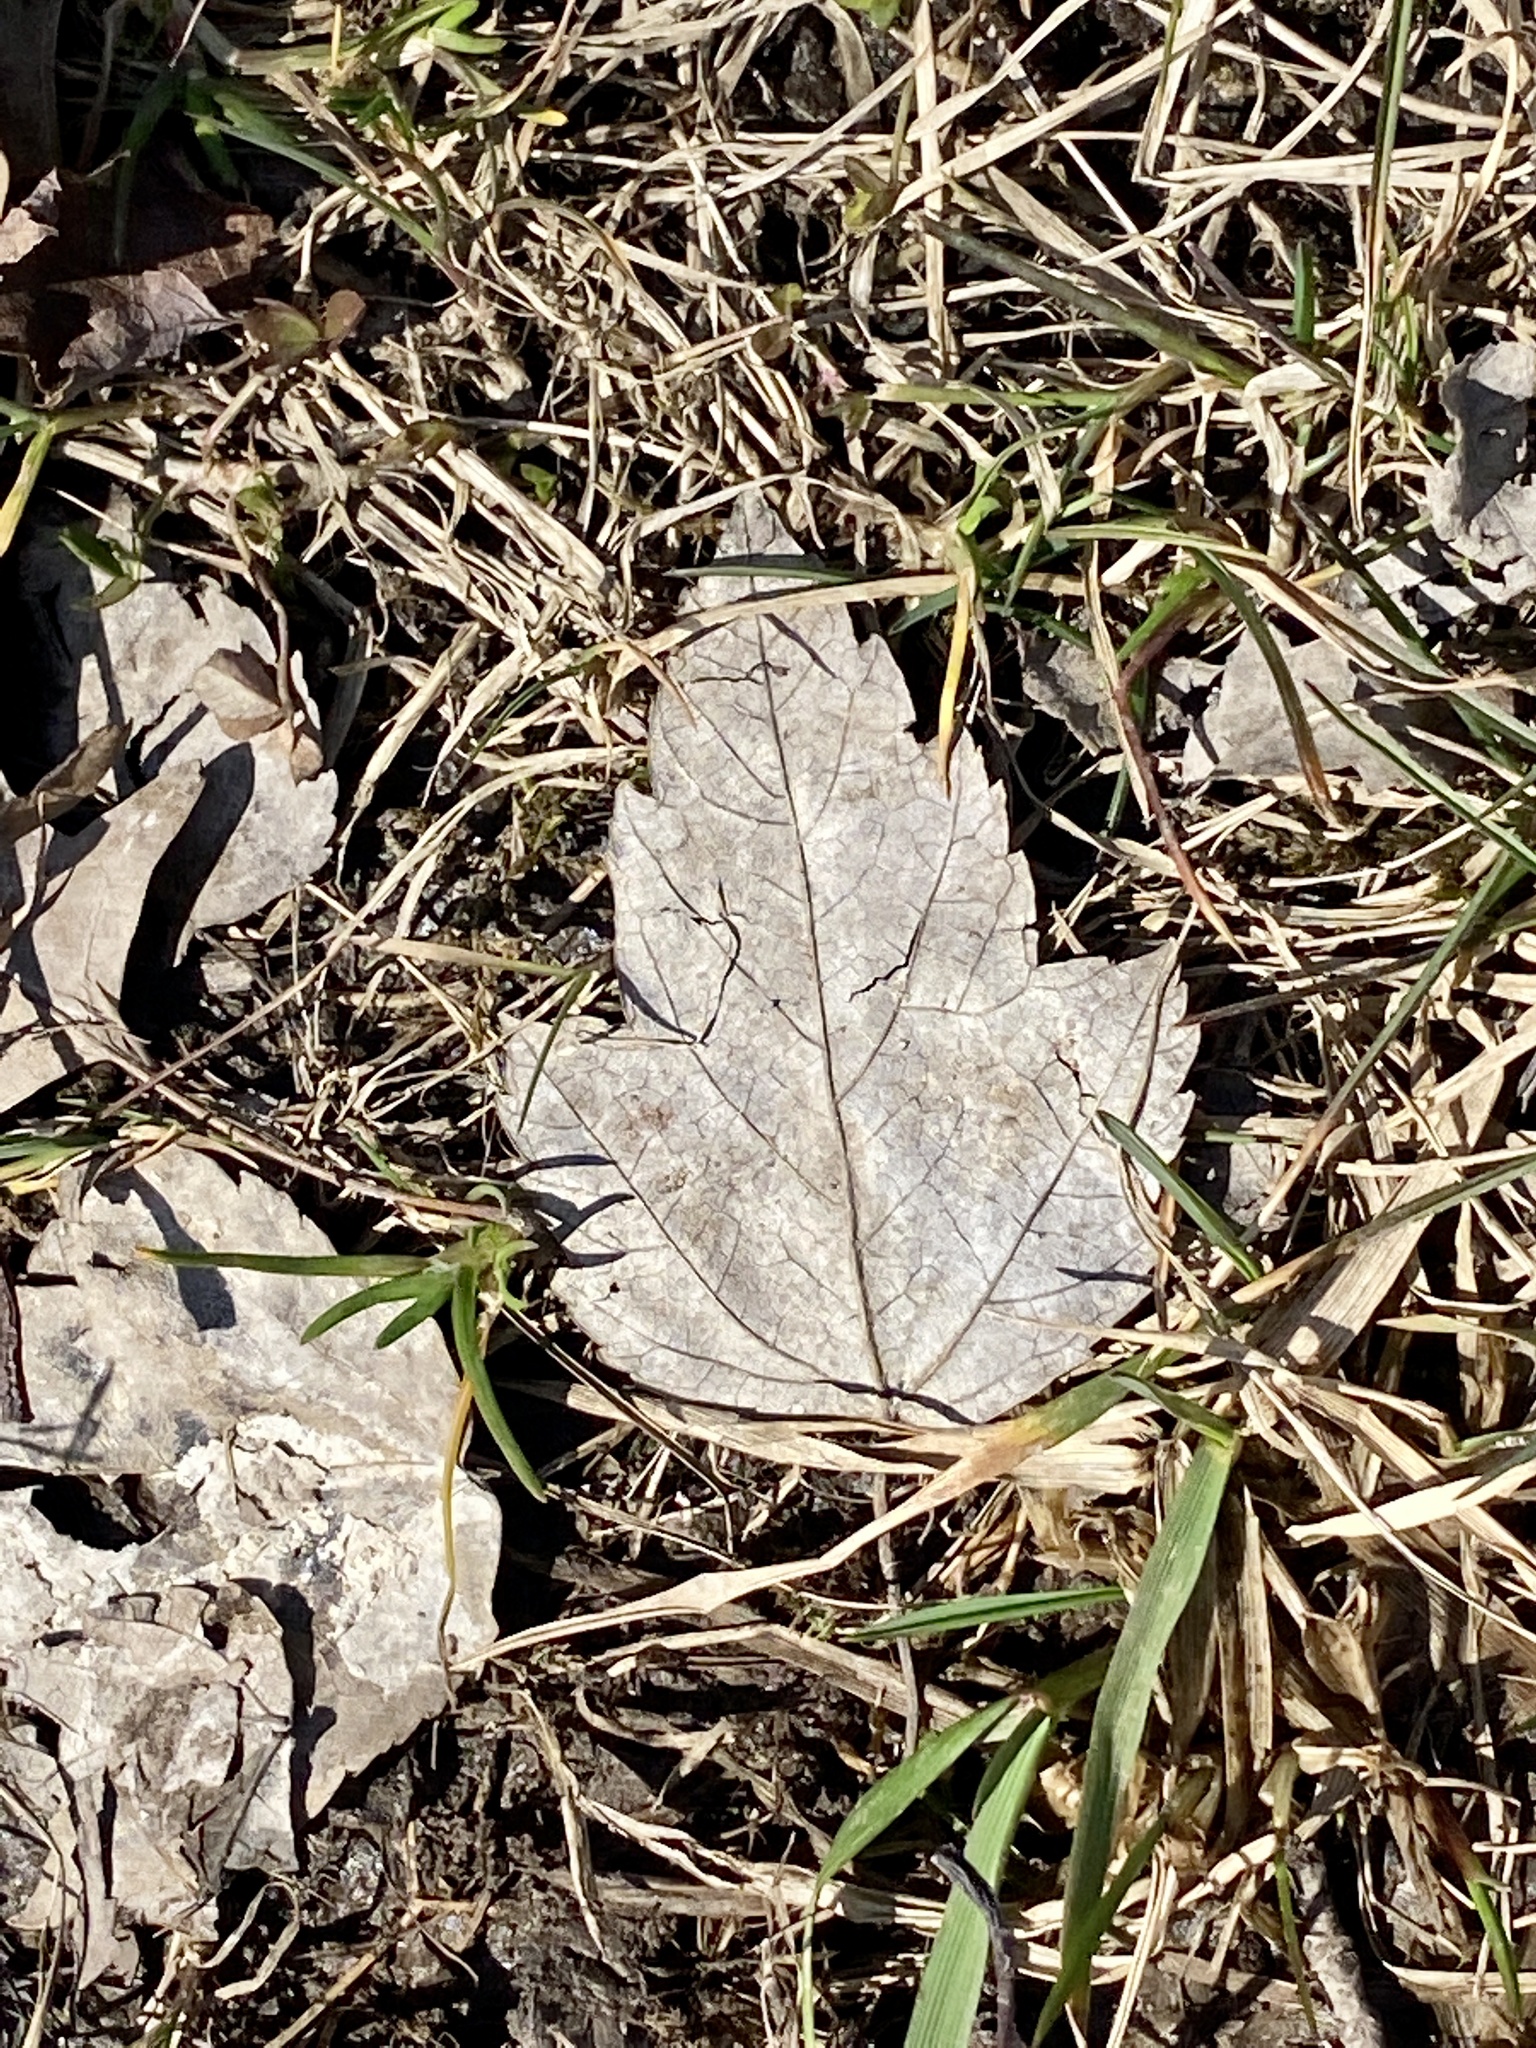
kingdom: Plantae
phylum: Tracheophyta
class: Magnoliopsida
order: Sapindales
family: Sapindaceae
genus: Acer
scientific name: Acer rubrum
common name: Red maple
